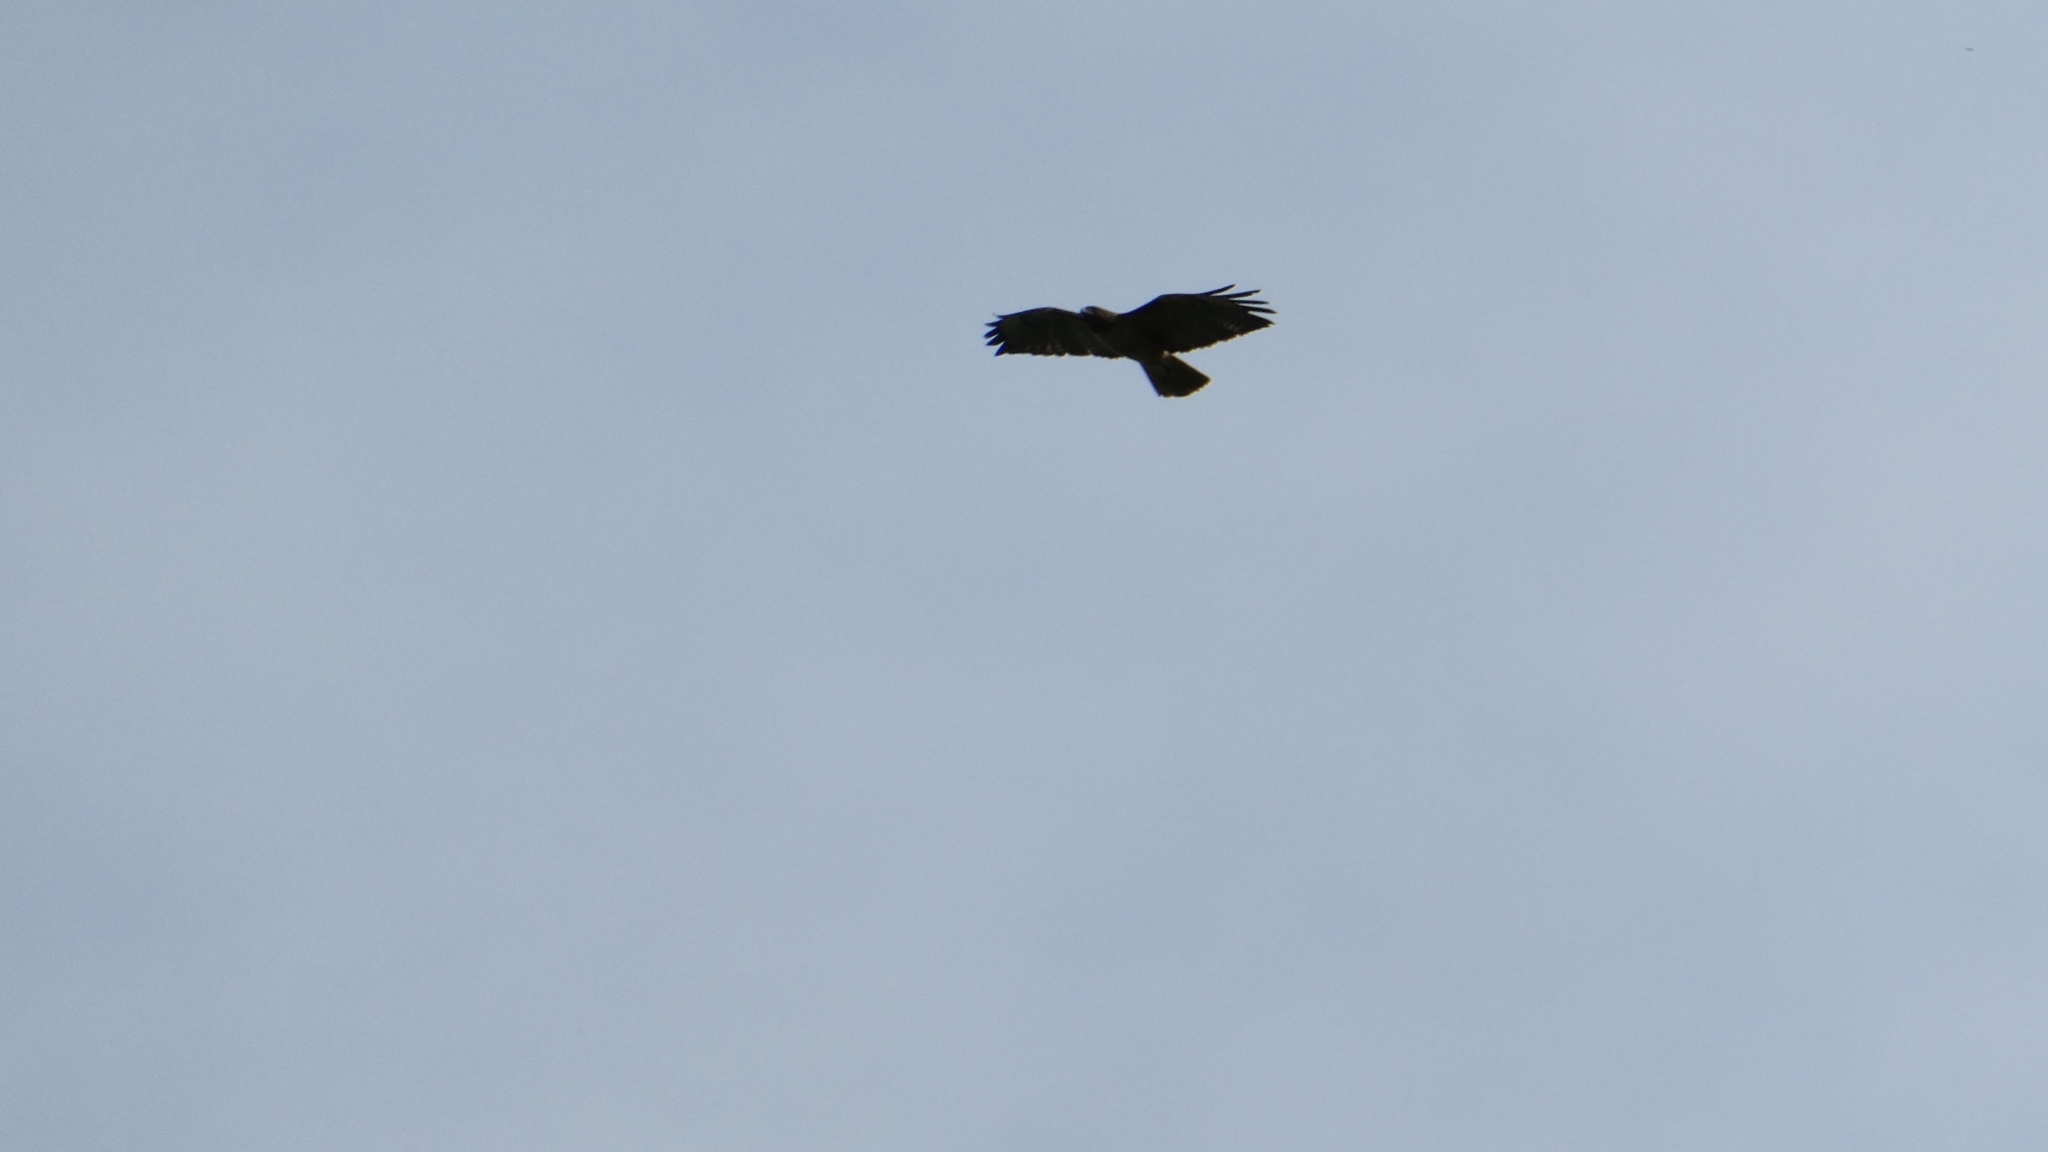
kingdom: Animalia
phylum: Chordata
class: Aves
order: Accipitriformes
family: Accipitridae
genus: Buteo
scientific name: Buteo jamaicensis
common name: Red-tailed hawk
